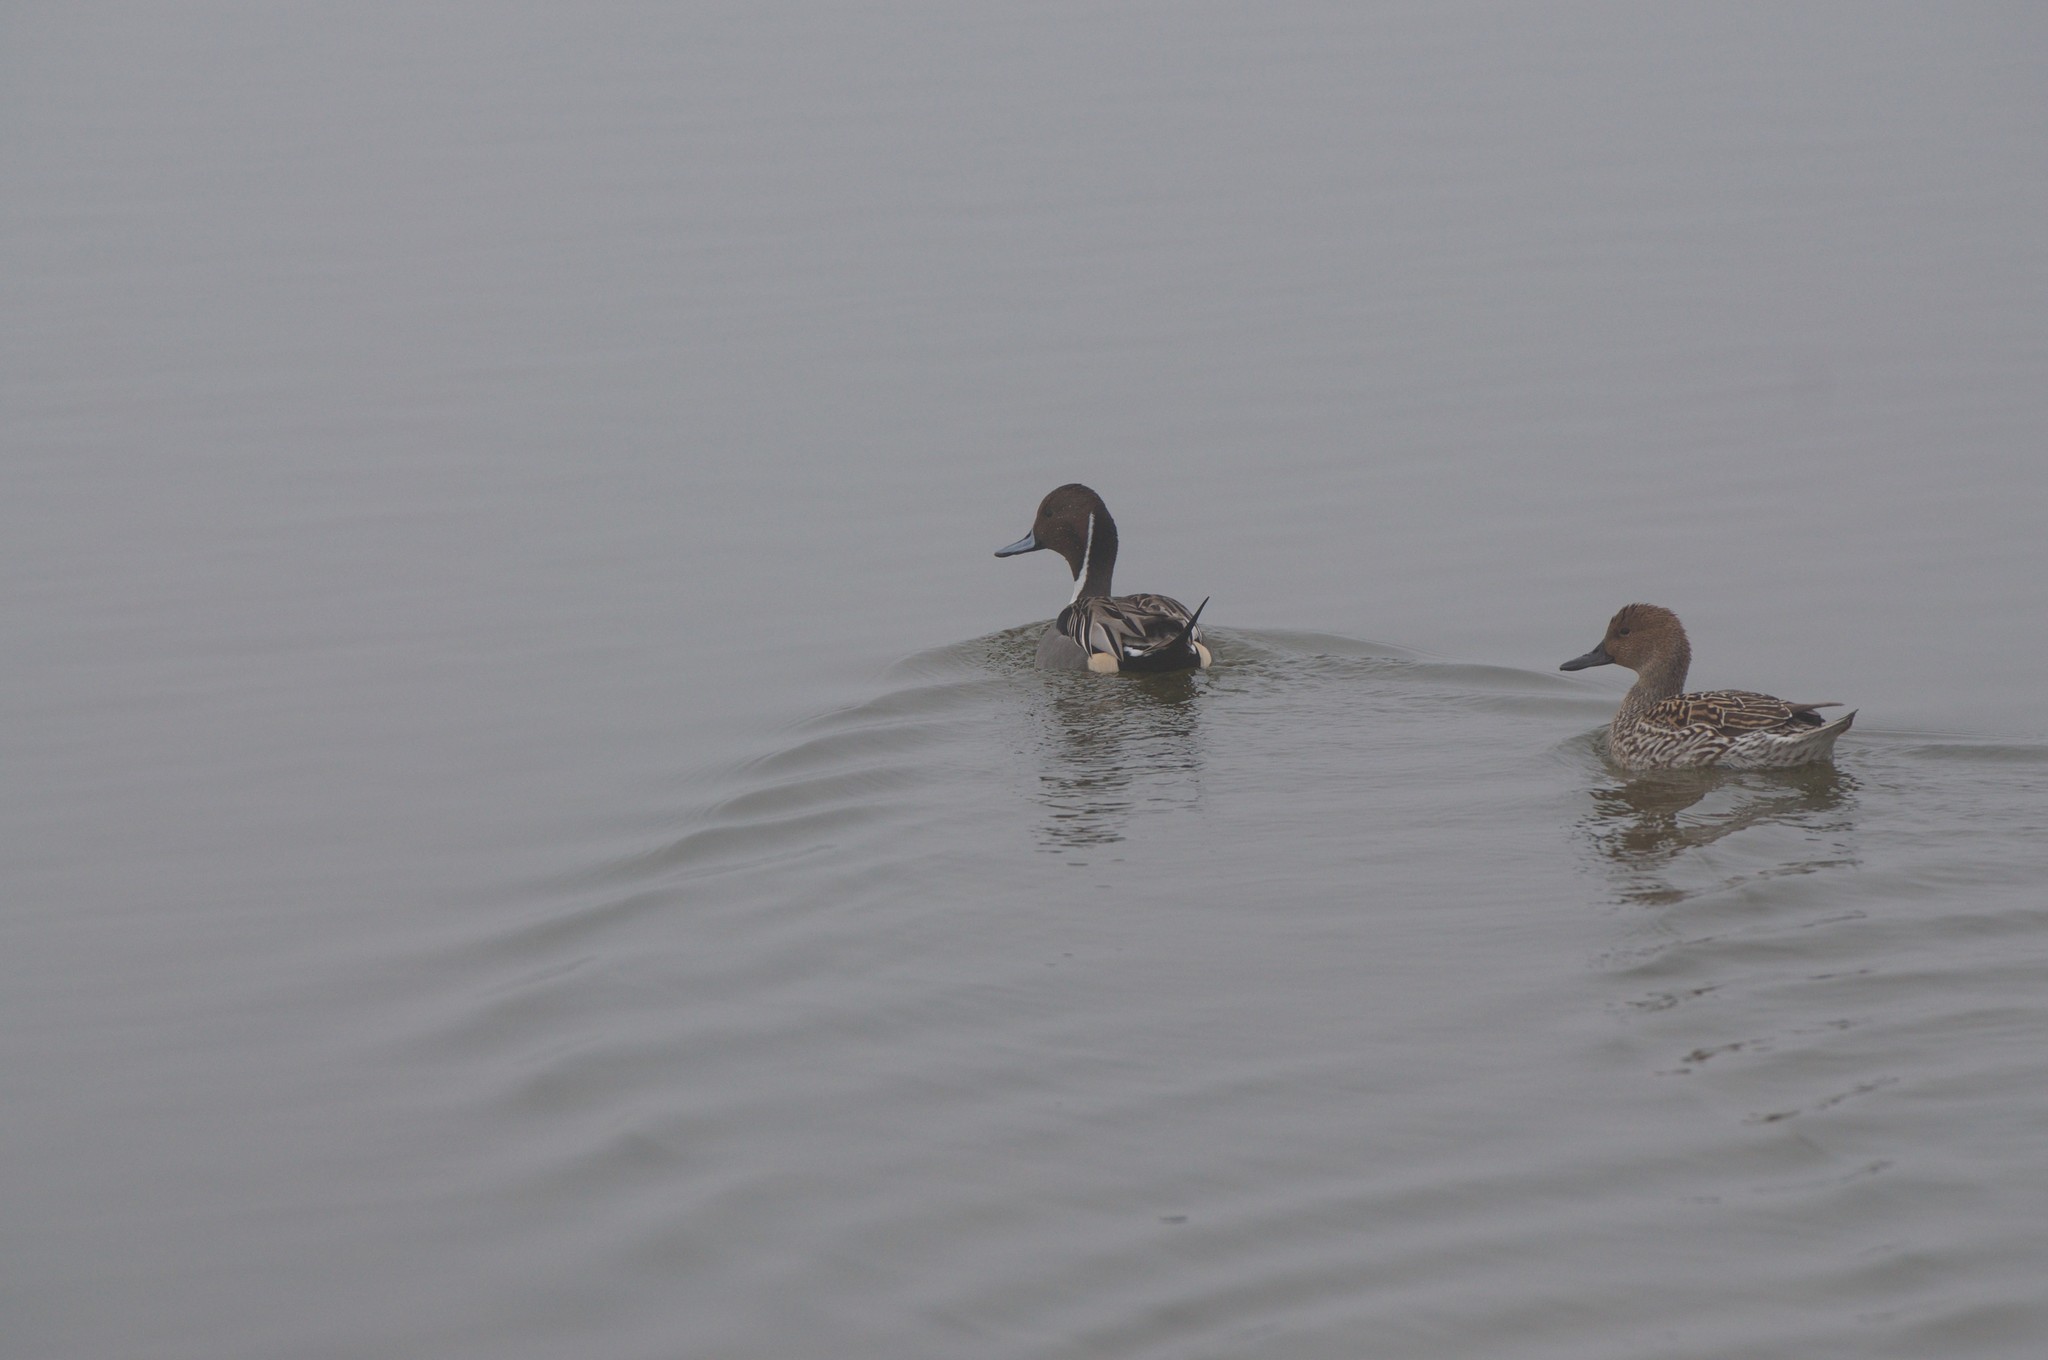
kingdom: Animalia
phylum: Chordata
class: Aves
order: Anseriformes
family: Anatidae
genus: Anas
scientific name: Anas acuta
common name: Northern pintail
